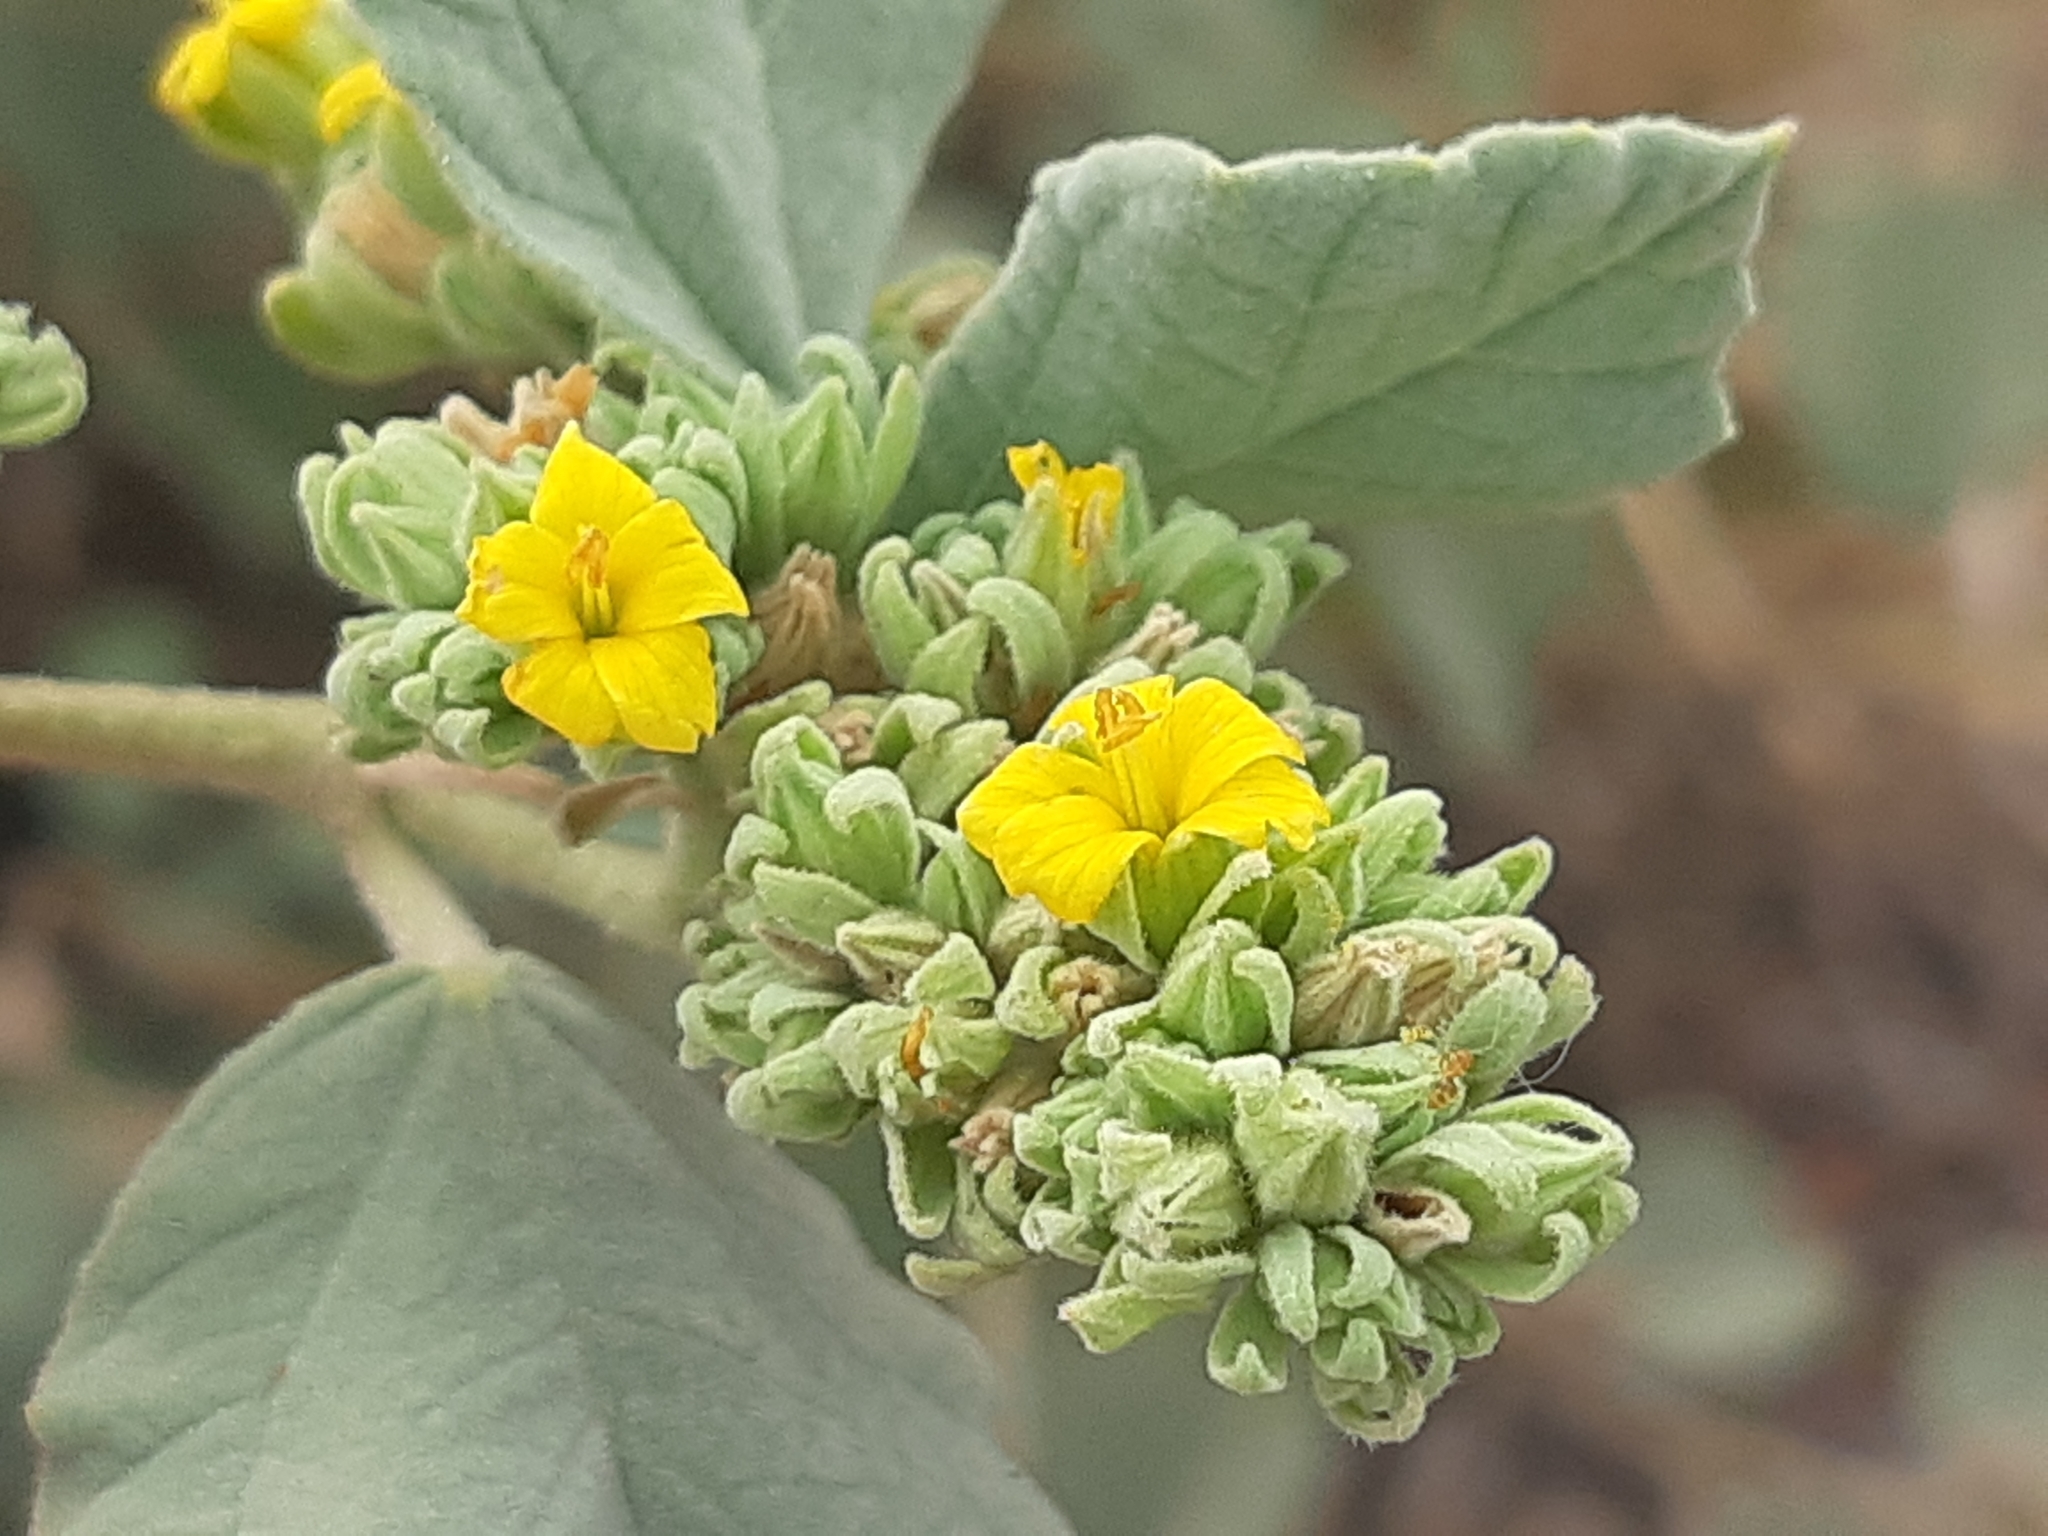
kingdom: Plantae
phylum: Tracheophyta
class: Magnoliopsida
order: Malvales
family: Malvaceae
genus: Waltheria
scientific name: Waltheria ovata
